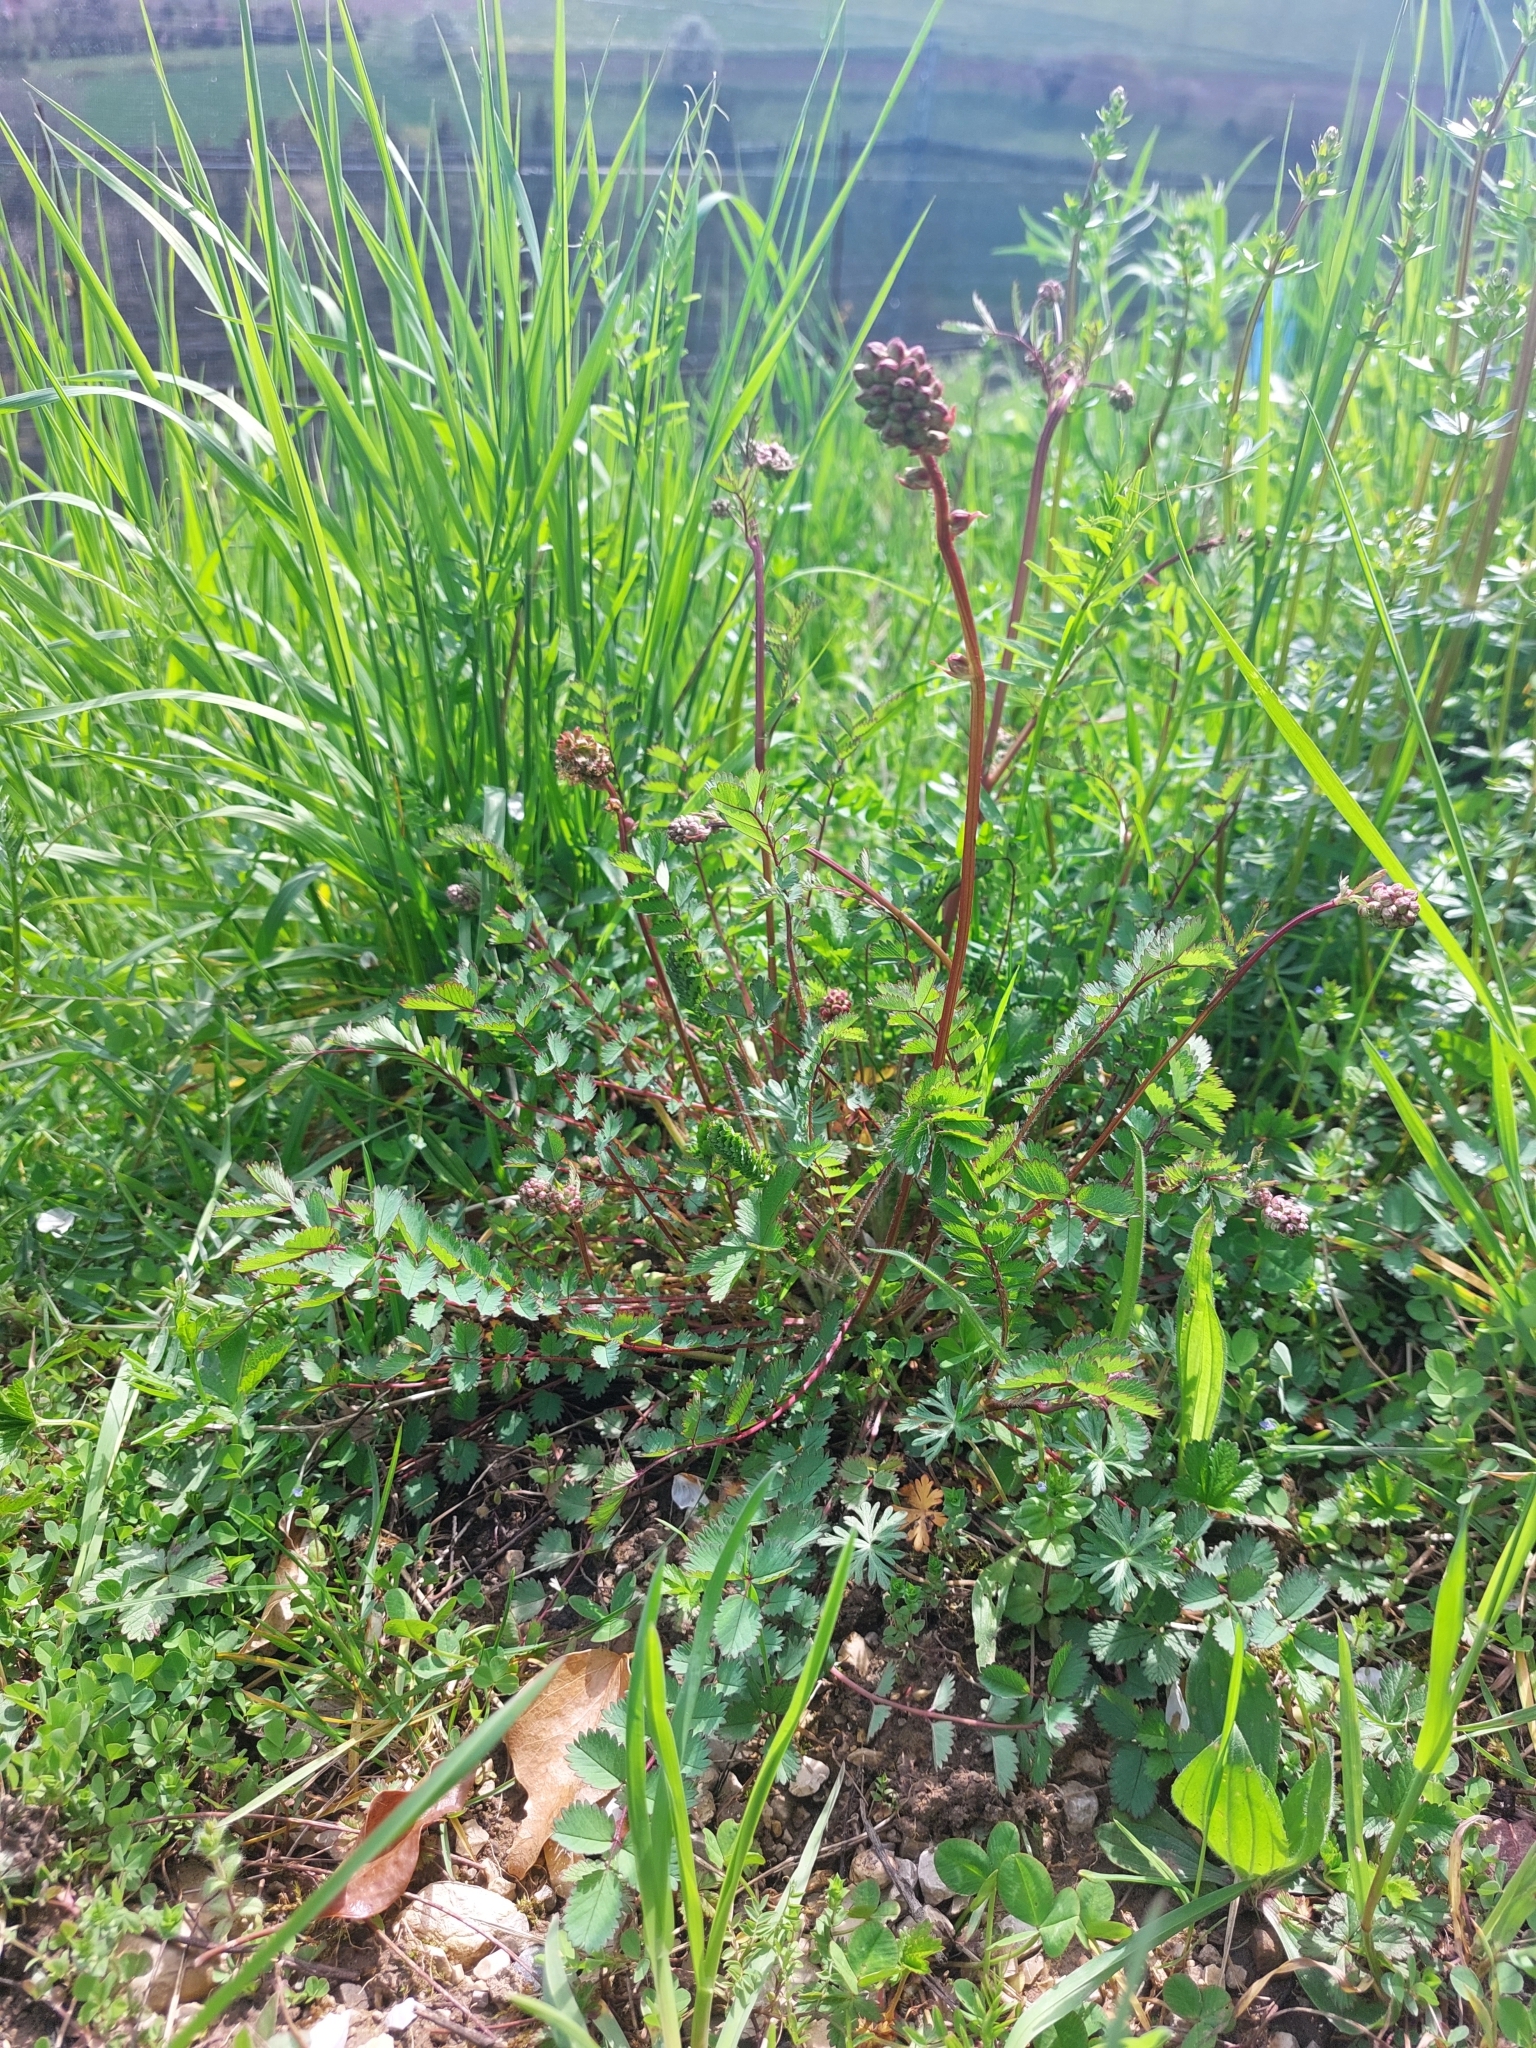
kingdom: Plantae
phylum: Tracheophyta
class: Magnoliopsida
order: Rosales
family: Rosaceae
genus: Poterium
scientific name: Poterium sanguisorba
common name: Salad burnet
